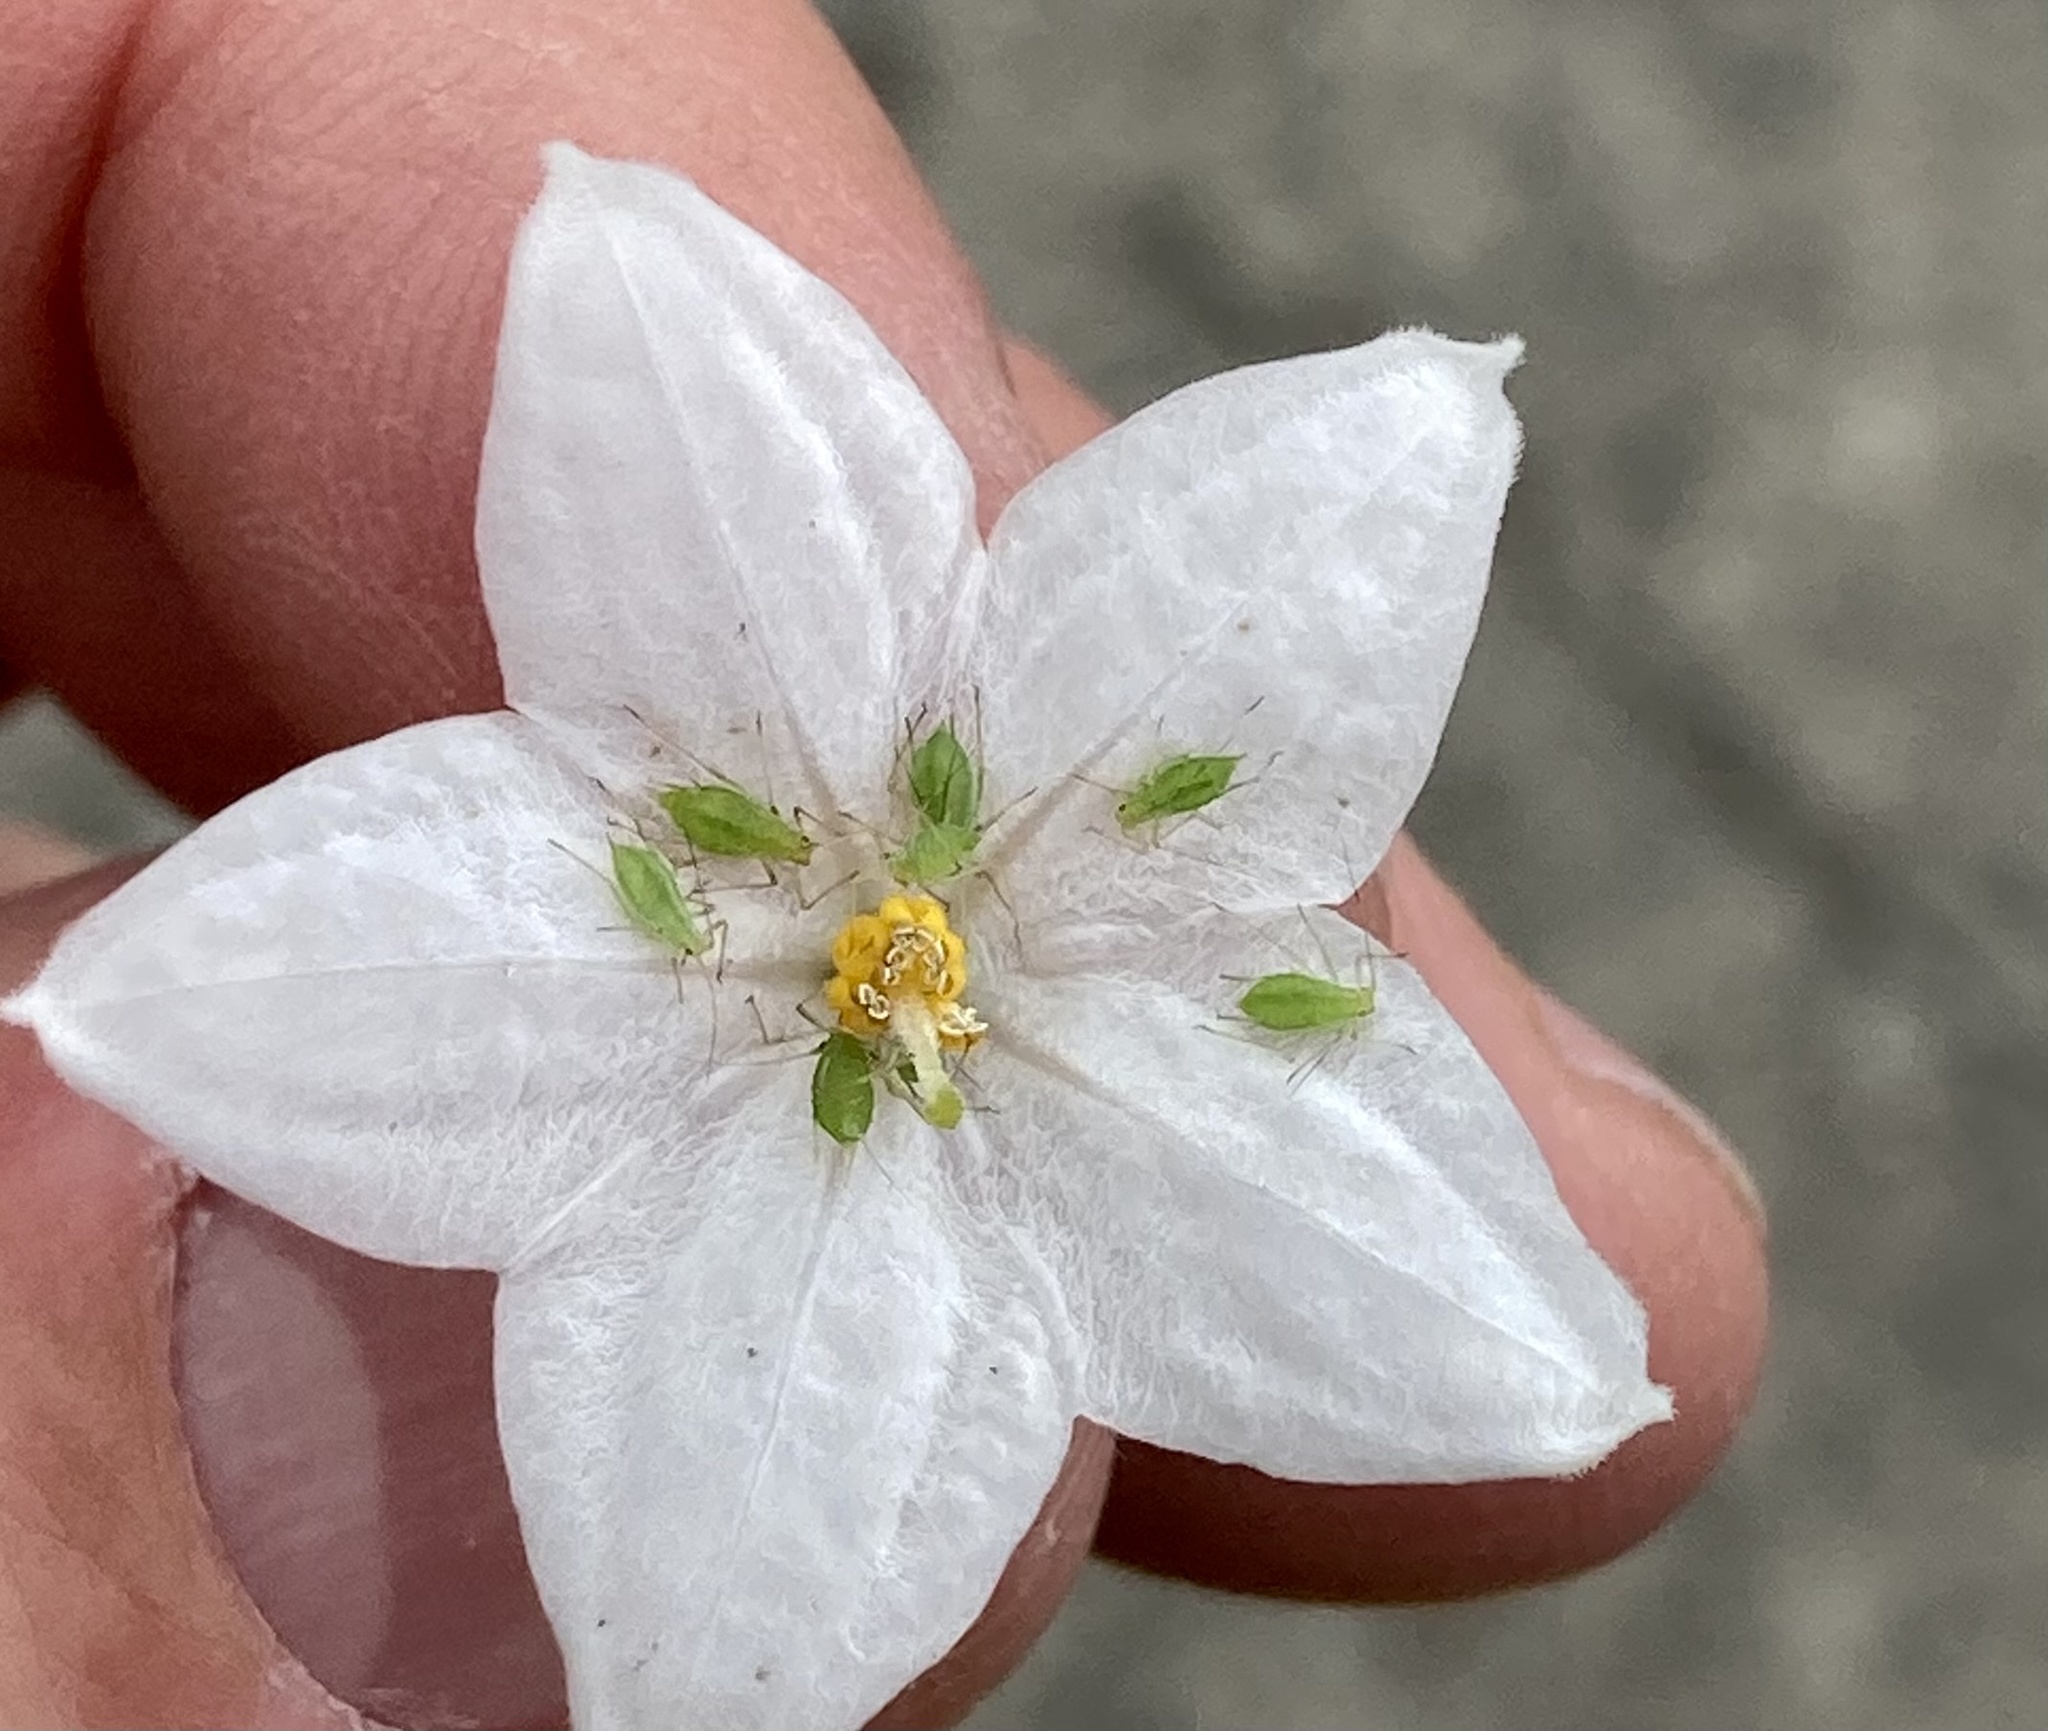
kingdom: Animalia
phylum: Arthropoda
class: Insecta
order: Hemiptera
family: Aphididae
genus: Macrosiphum
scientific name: Macrosiphum euphorbiae
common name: Potato aphid
